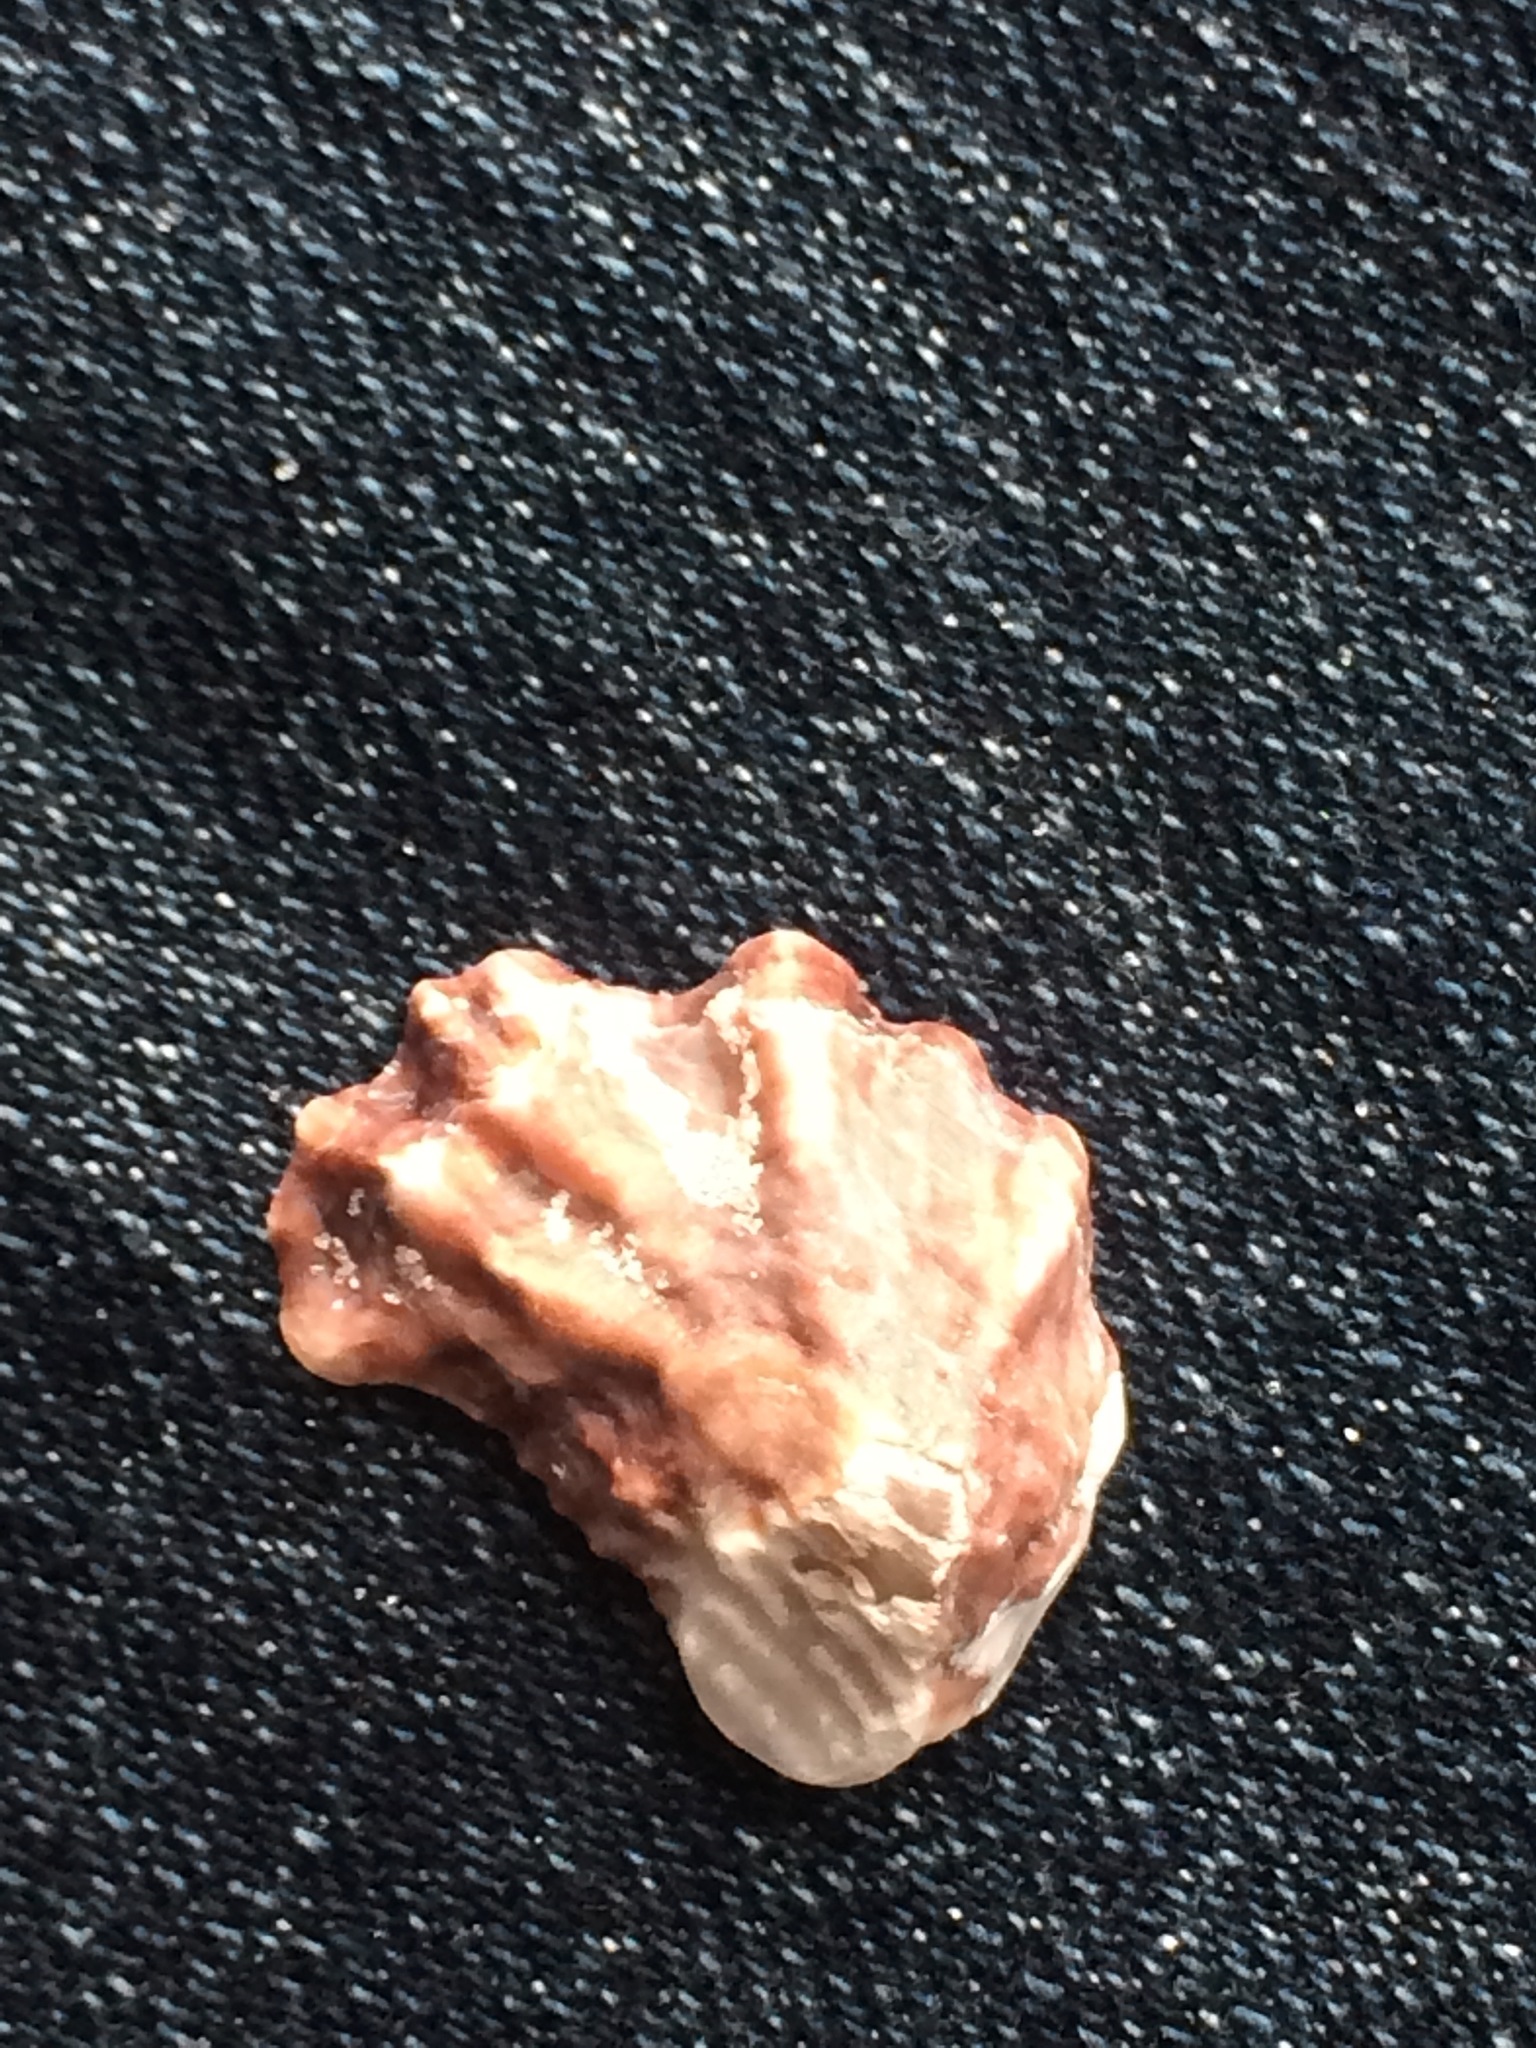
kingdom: Animalia
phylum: Mollusca
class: Bivalvia
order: Ostreida
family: Ostreidae
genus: Crassostrea
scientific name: Crassostrea virginica
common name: American oyster
